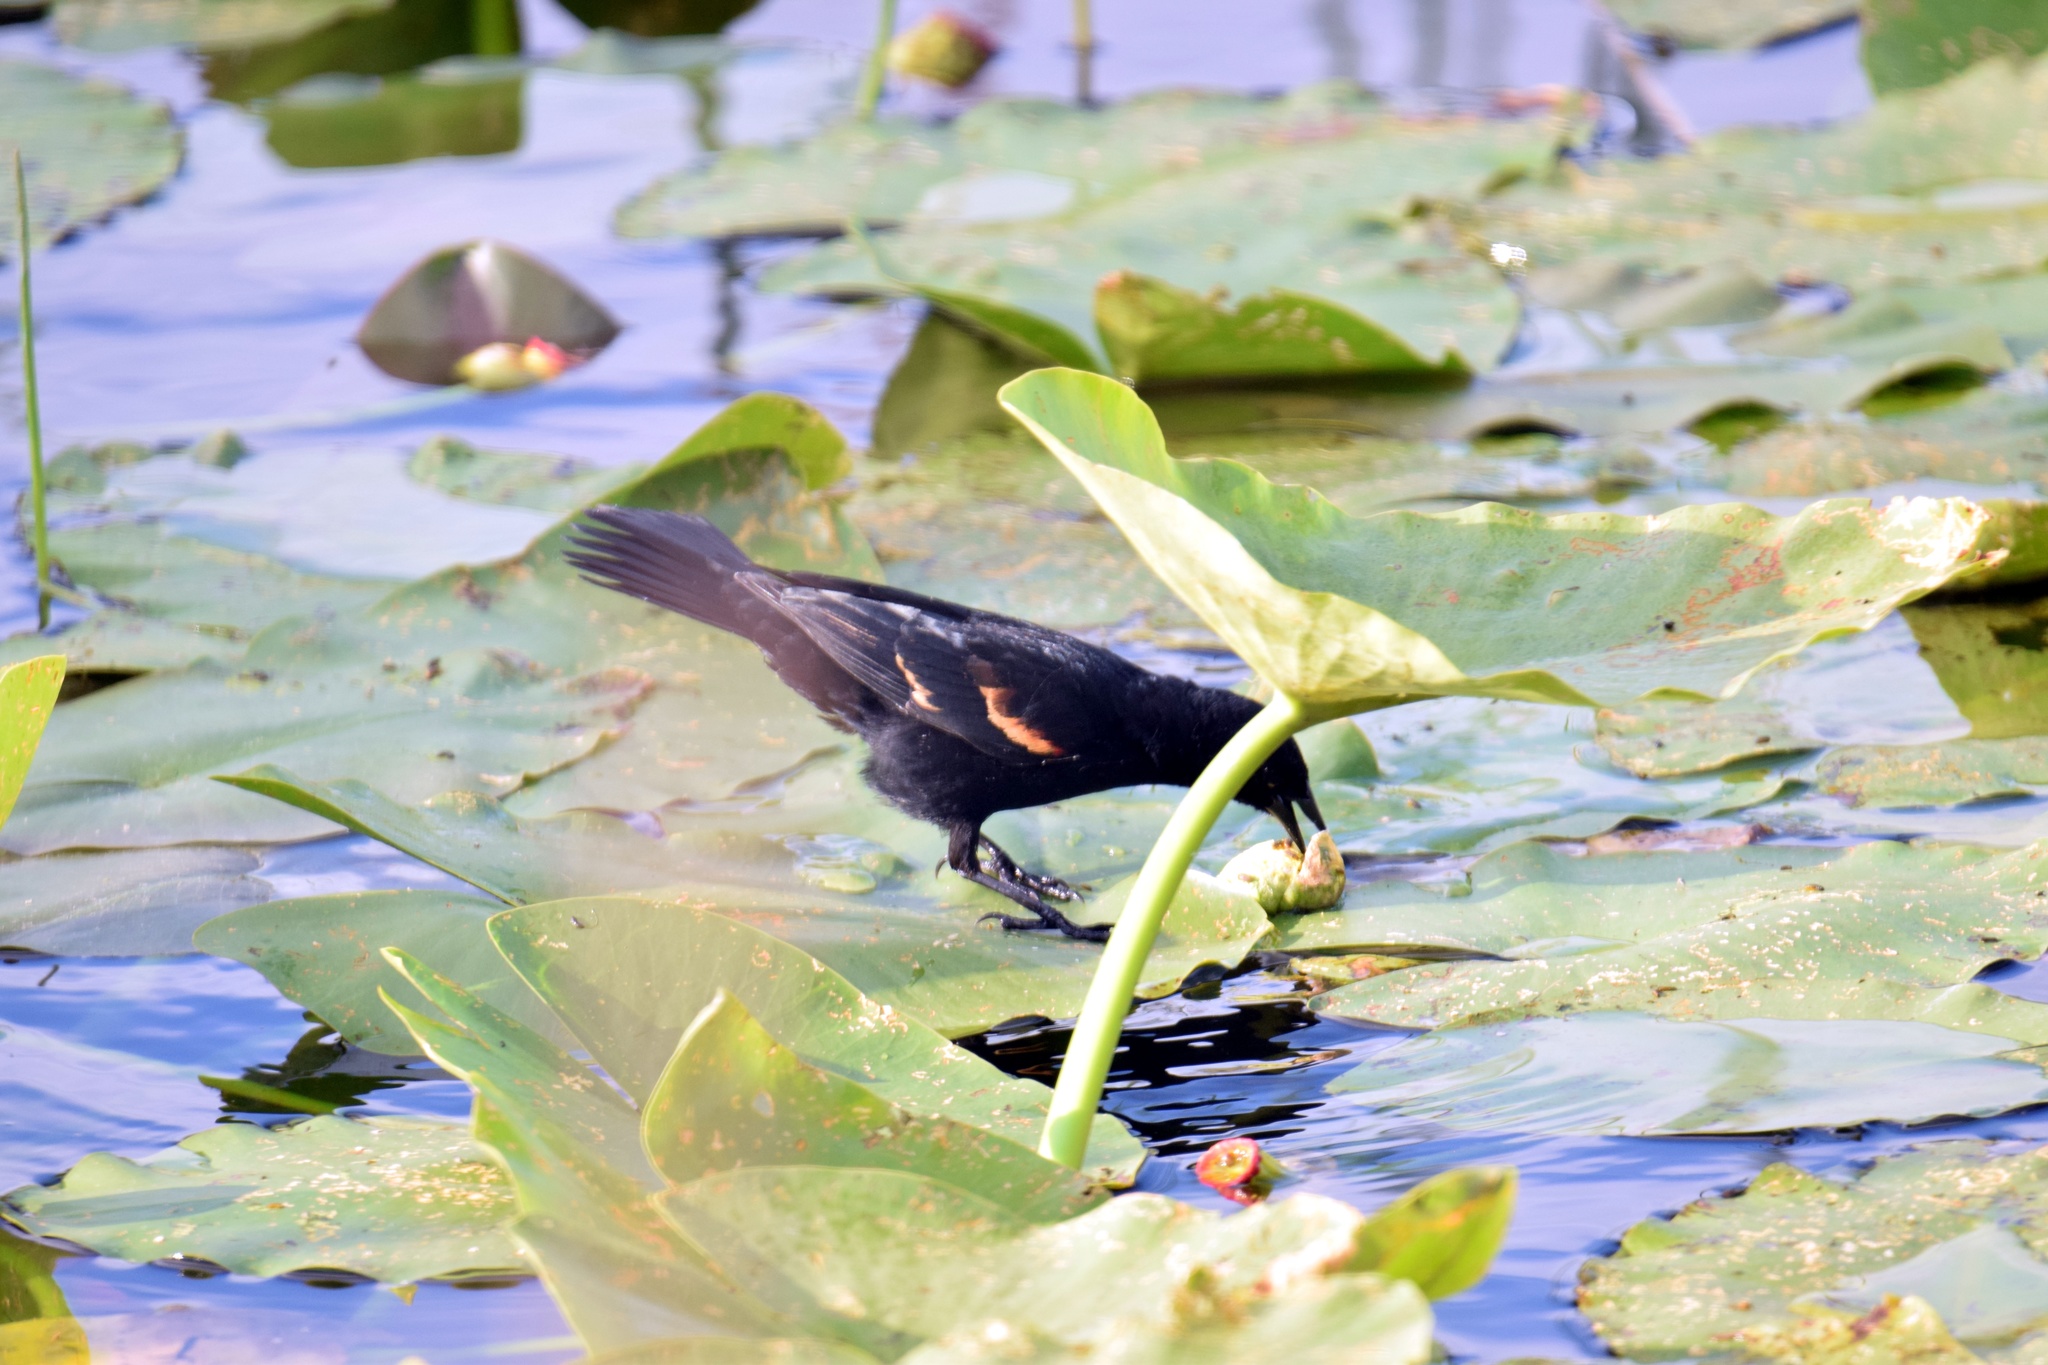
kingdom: Animalia
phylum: Chordata
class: Aves
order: Passeriformes
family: Icteridae
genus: Agelaius
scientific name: Agelaius phoeniceus
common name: Red-winged blackbird
